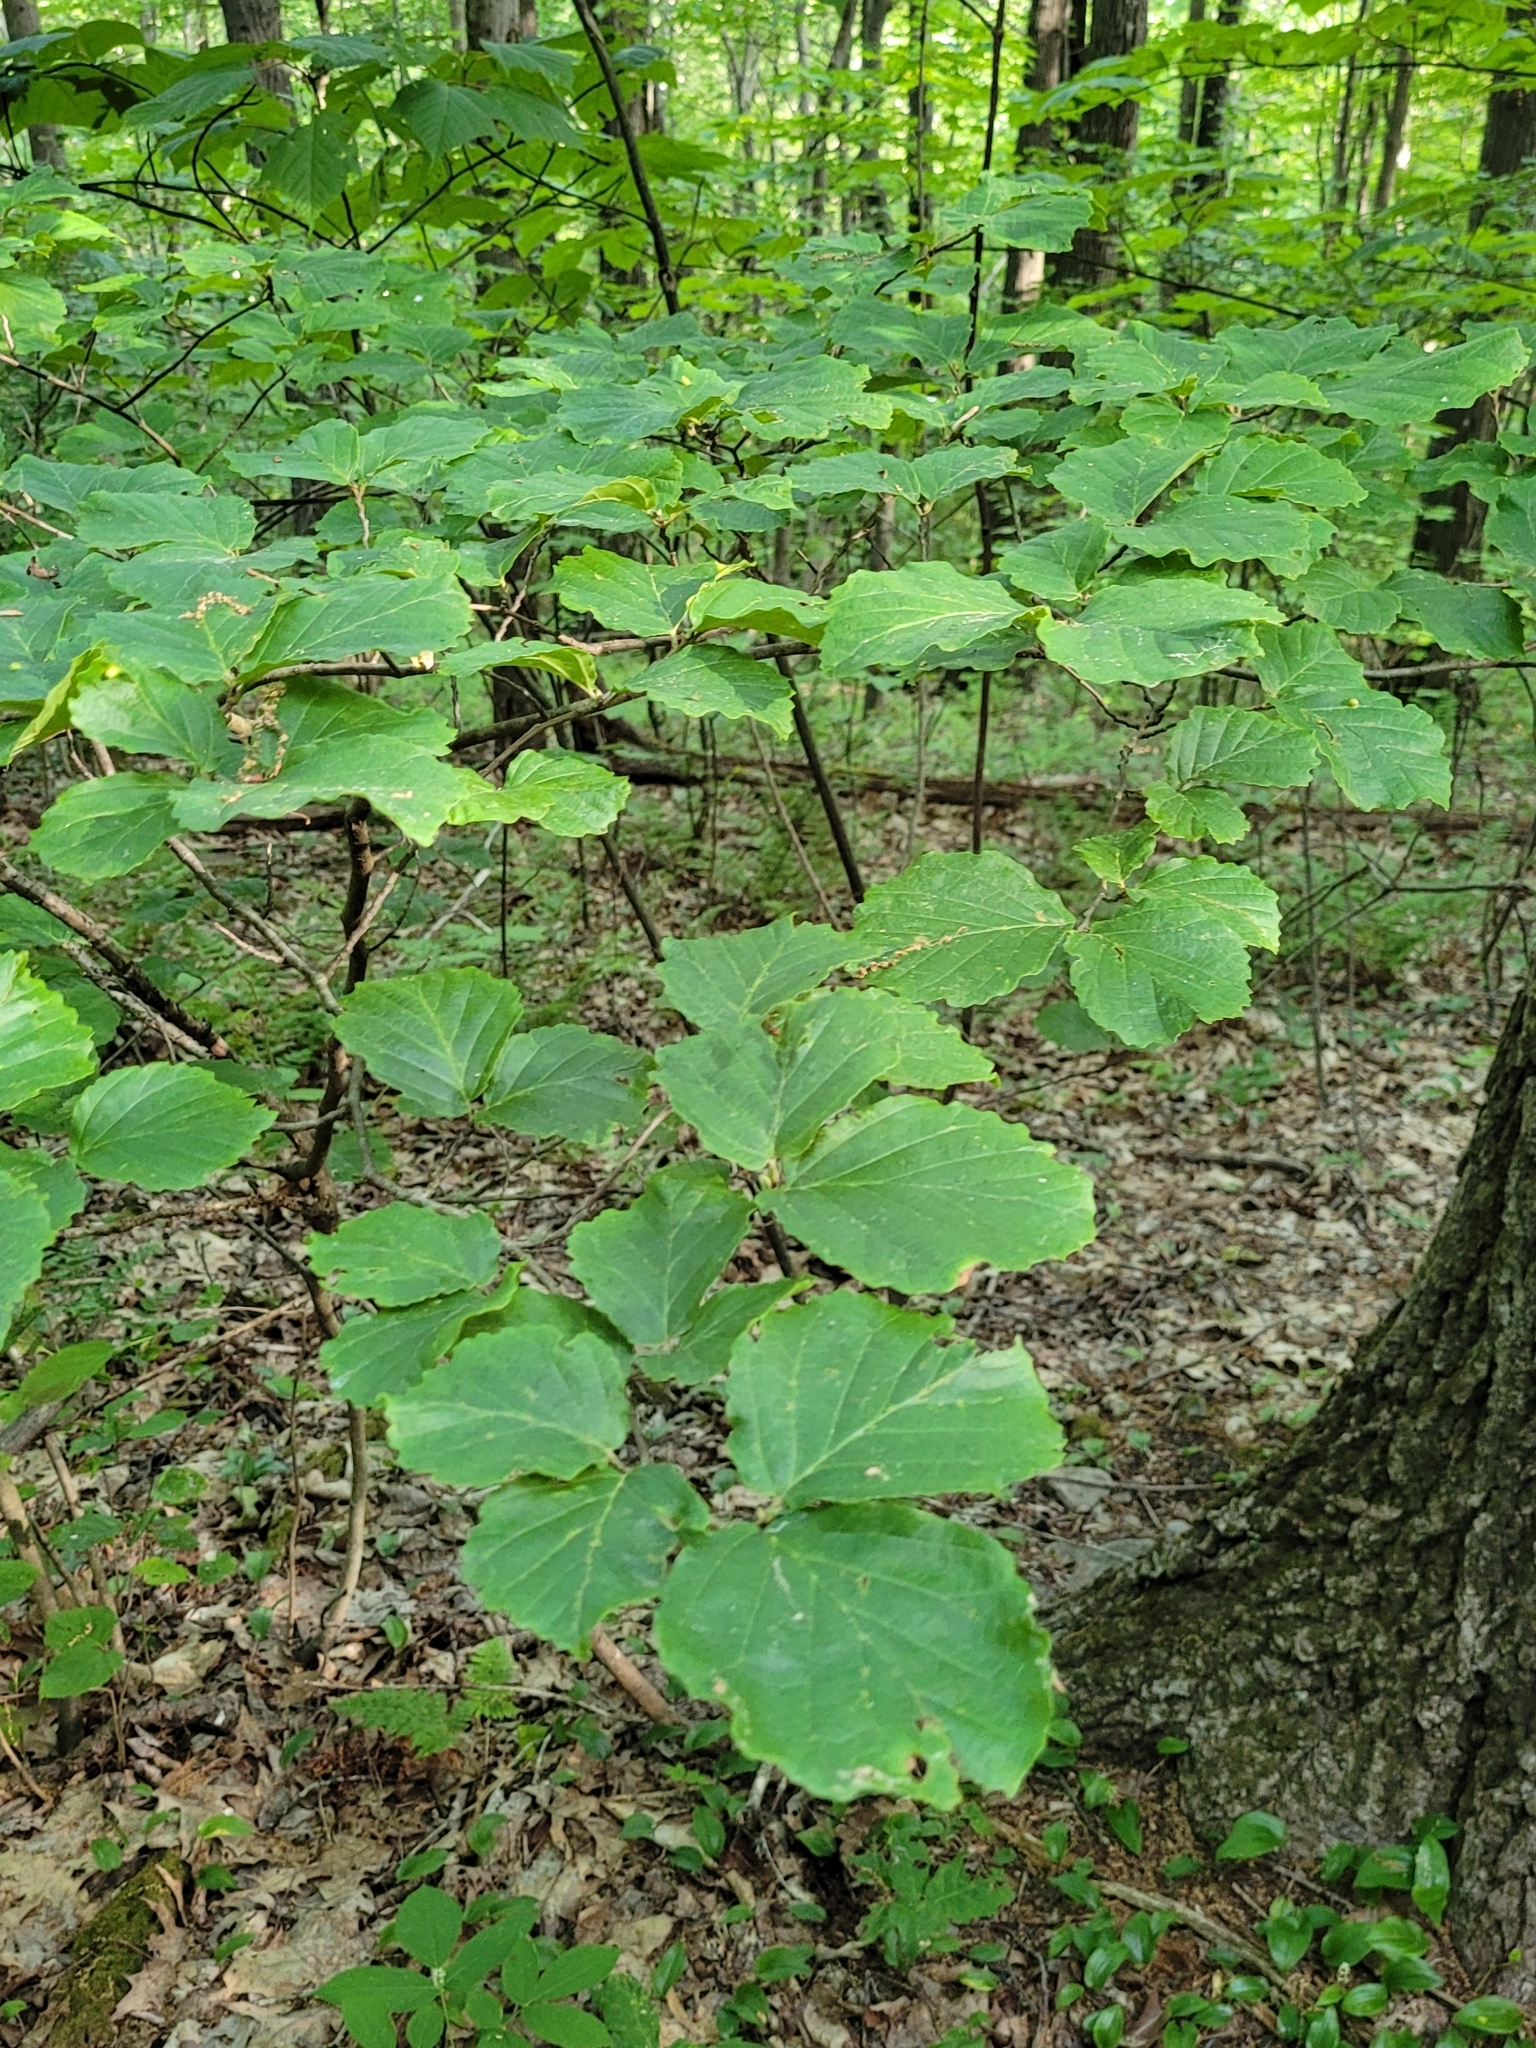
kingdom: Plantae
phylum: Tracheophyta
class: Magnoliopsida
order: Saxifragales
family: Hamamelidaceae
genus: Hamamelis
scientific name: Hamamelis virginiana
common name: Witch-hazel
